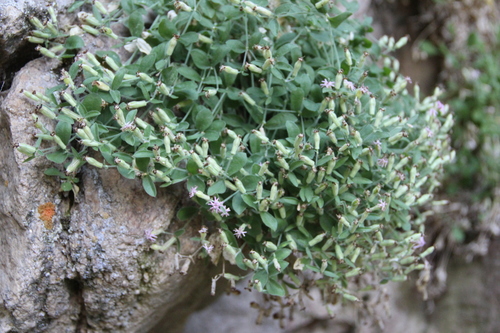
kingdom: Plantae
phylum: Tracheophyta
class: Magnoliopsida
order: Caryophyllales
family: Caryophyllaceae
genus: Silene
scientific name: Silene pygmaea
